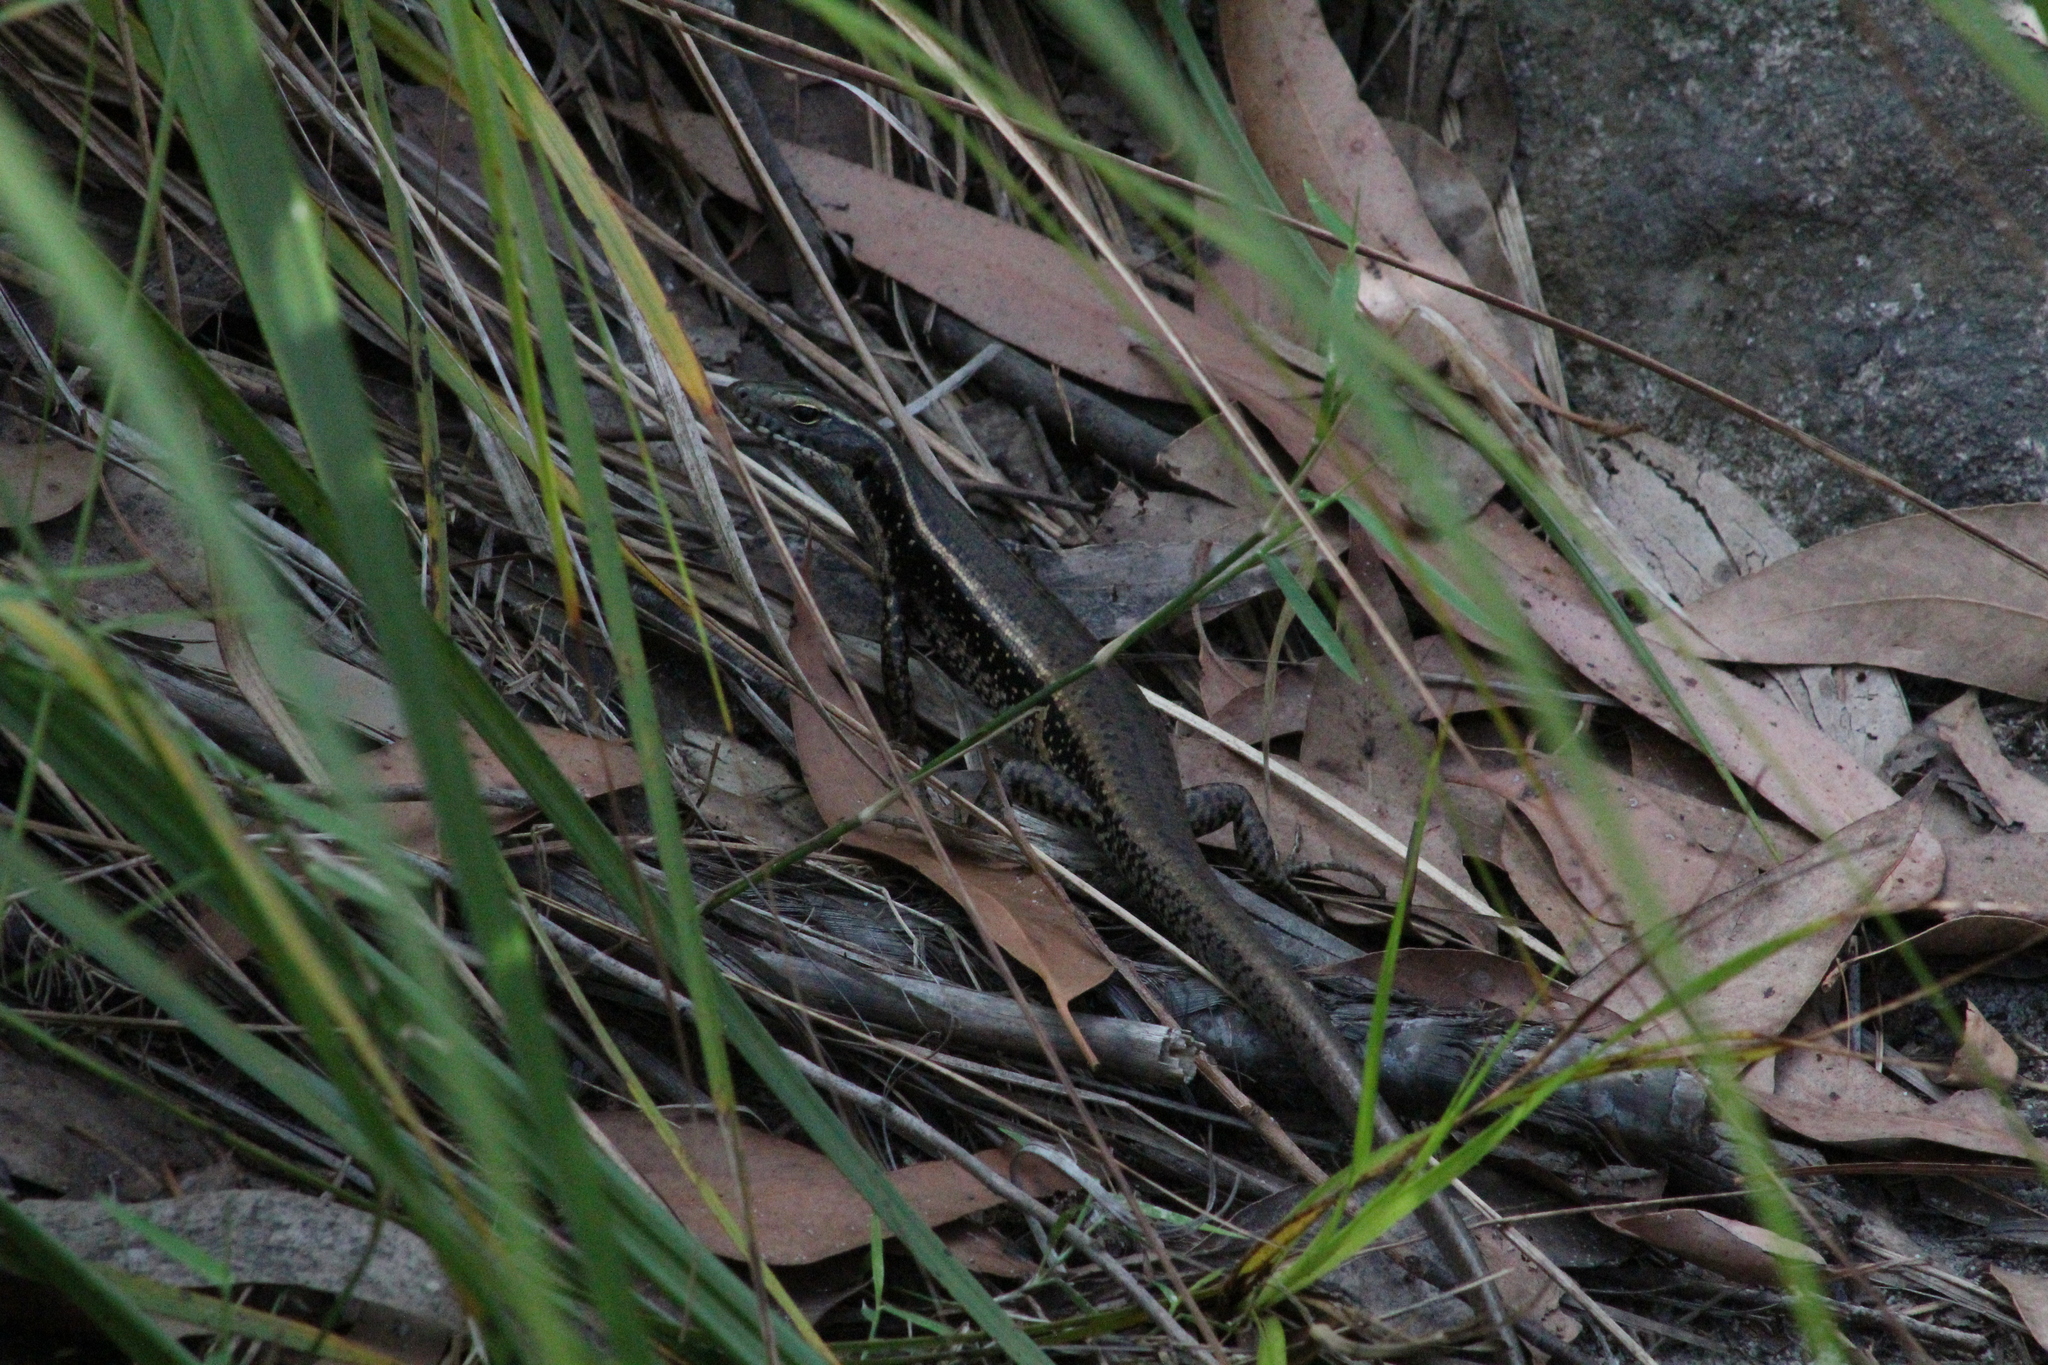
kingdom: Animalia
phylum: Chordata
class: Squamata
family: Scincidae
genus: Eulamprus
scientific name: Eulamprus quoyii
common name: Eastern water skink
